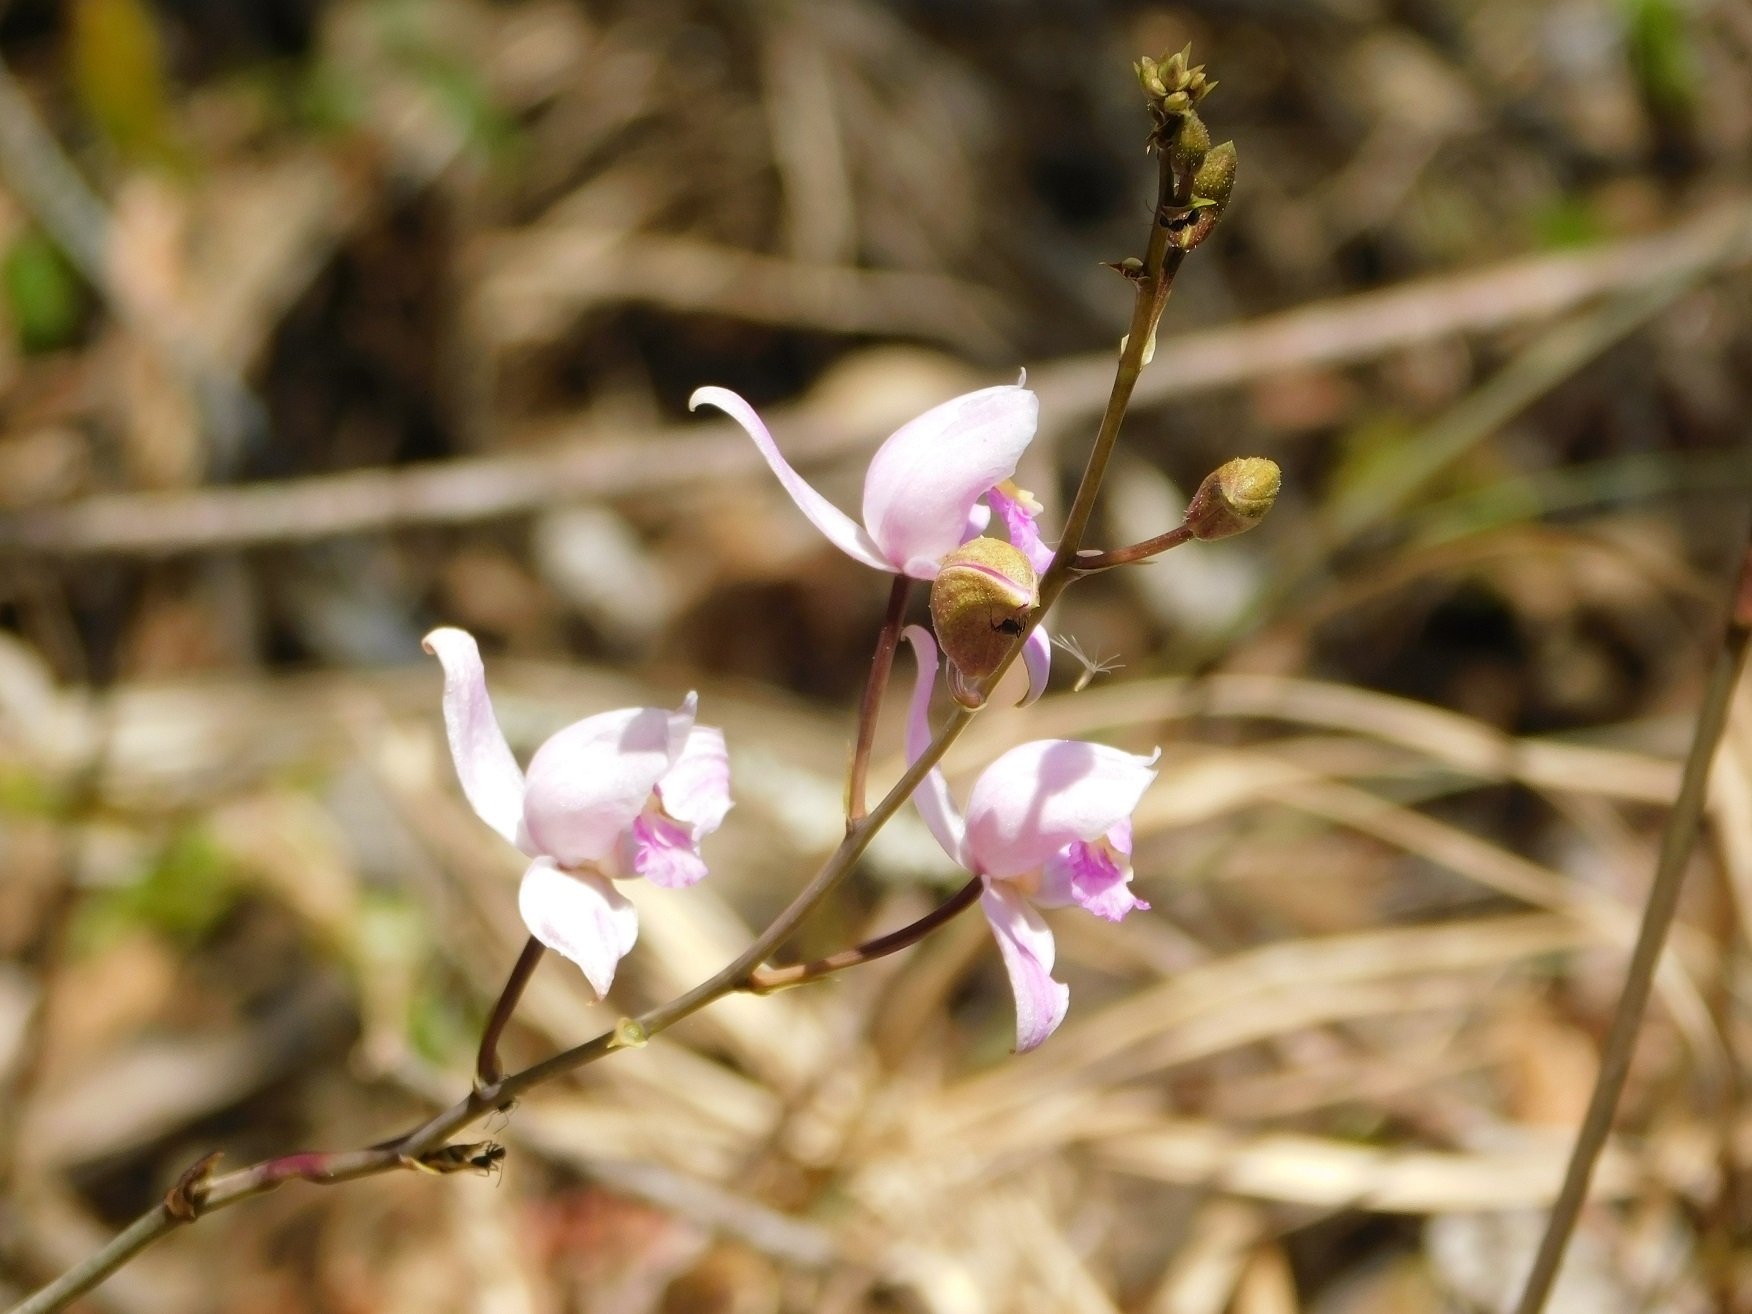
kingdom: Plantae
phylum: Tracheophyta
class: Liliopsida
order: Asparagales
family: Orchidaceae
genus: Bletia
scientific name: Bletia purpurea
